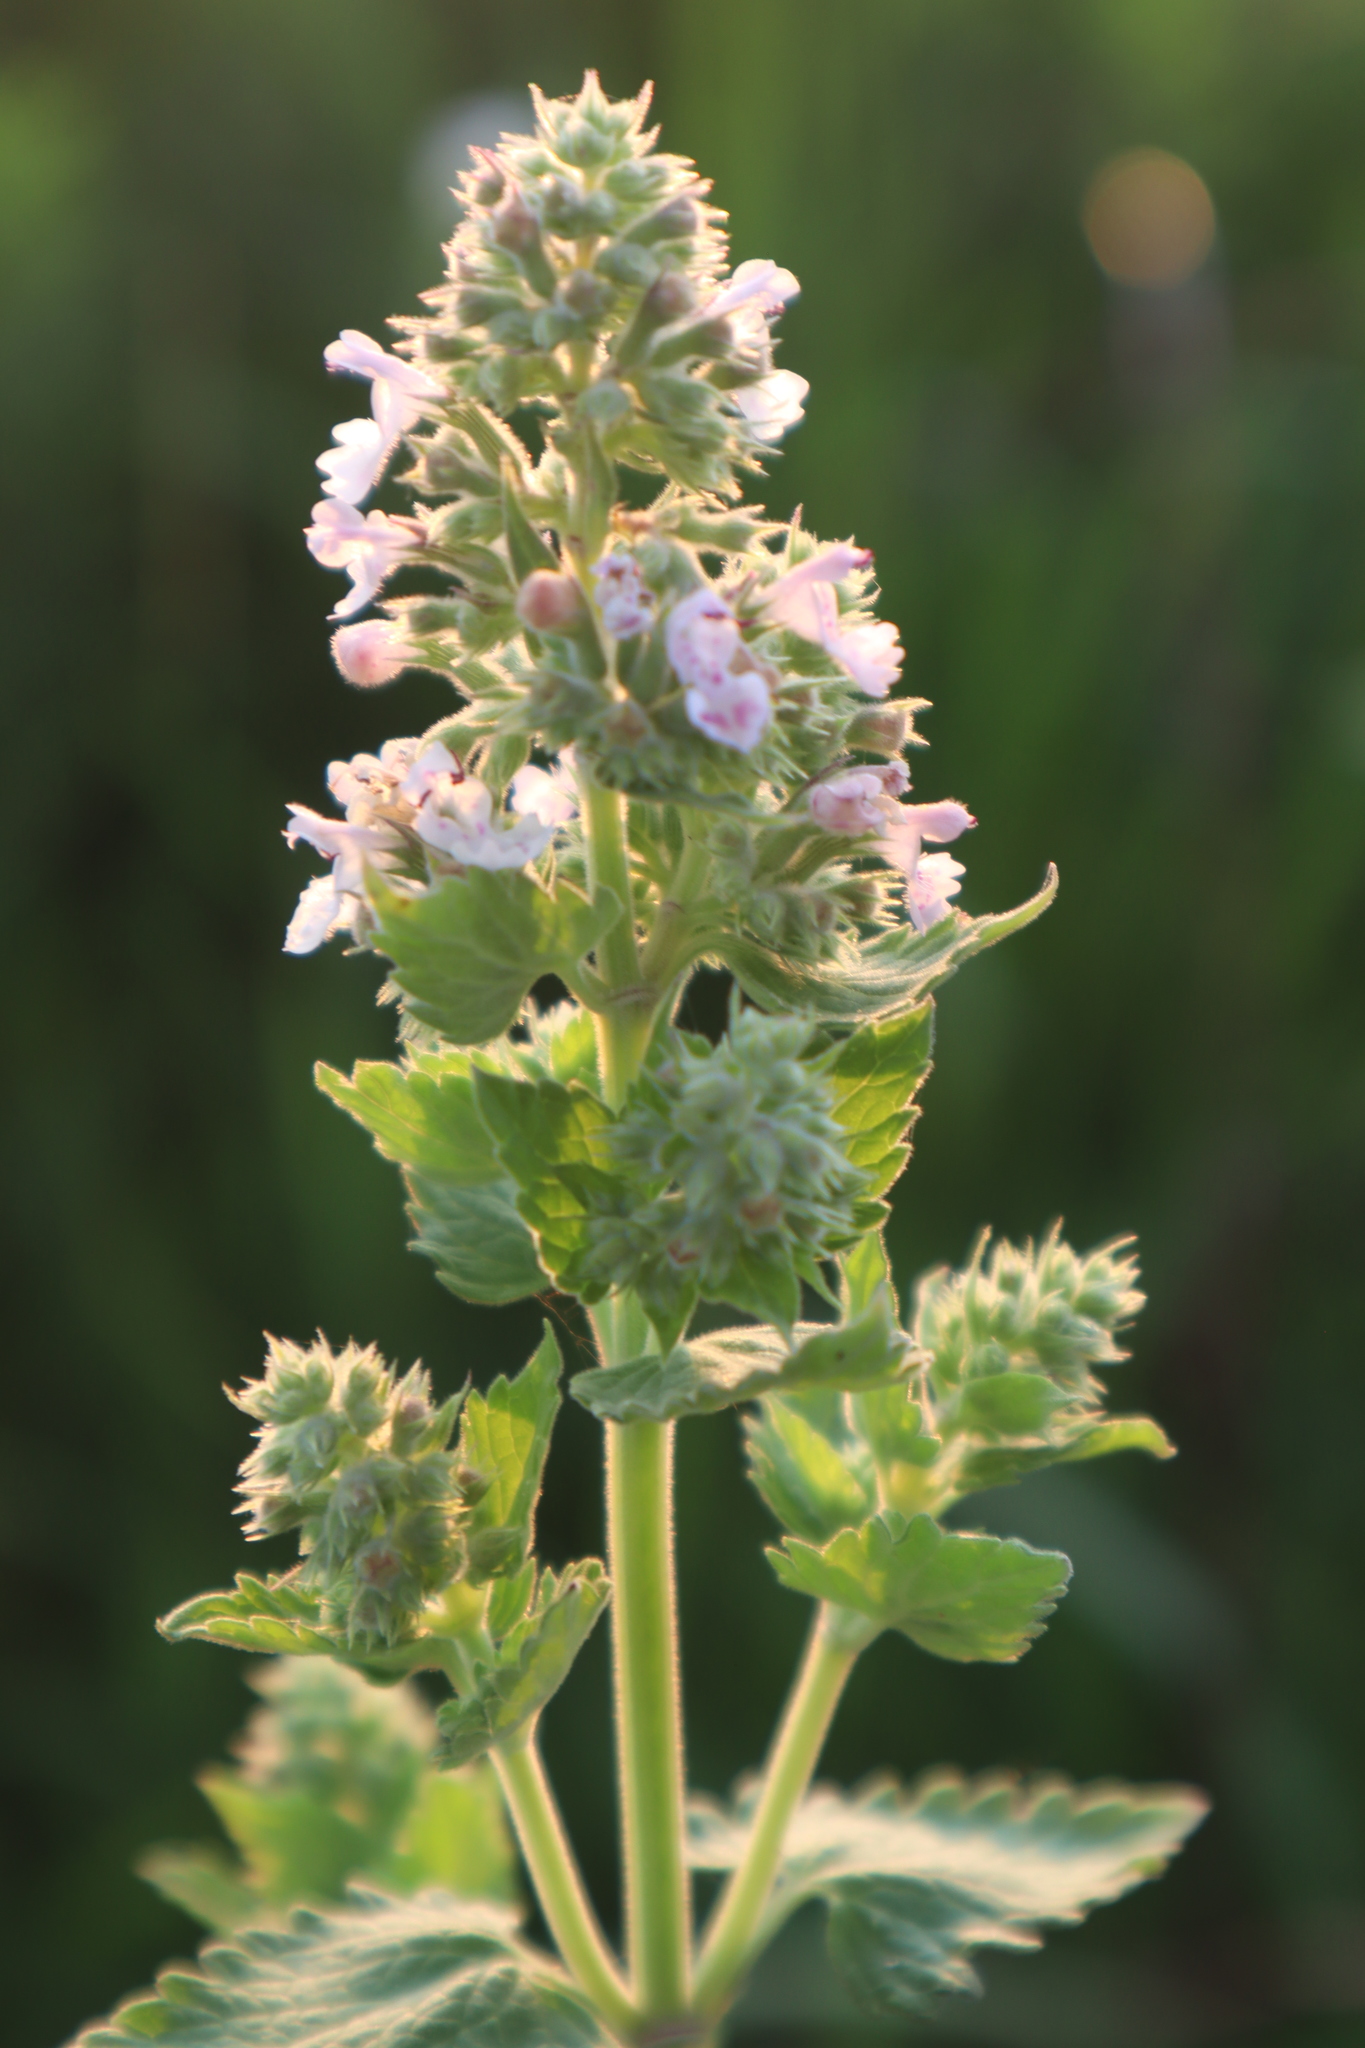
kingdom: Plantae
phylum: Tracheophyta
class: Magnoliopsida
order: Lamiales
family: Lamiaceae
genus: Nepeta
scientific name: Nepeta cataria
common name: Catnip
